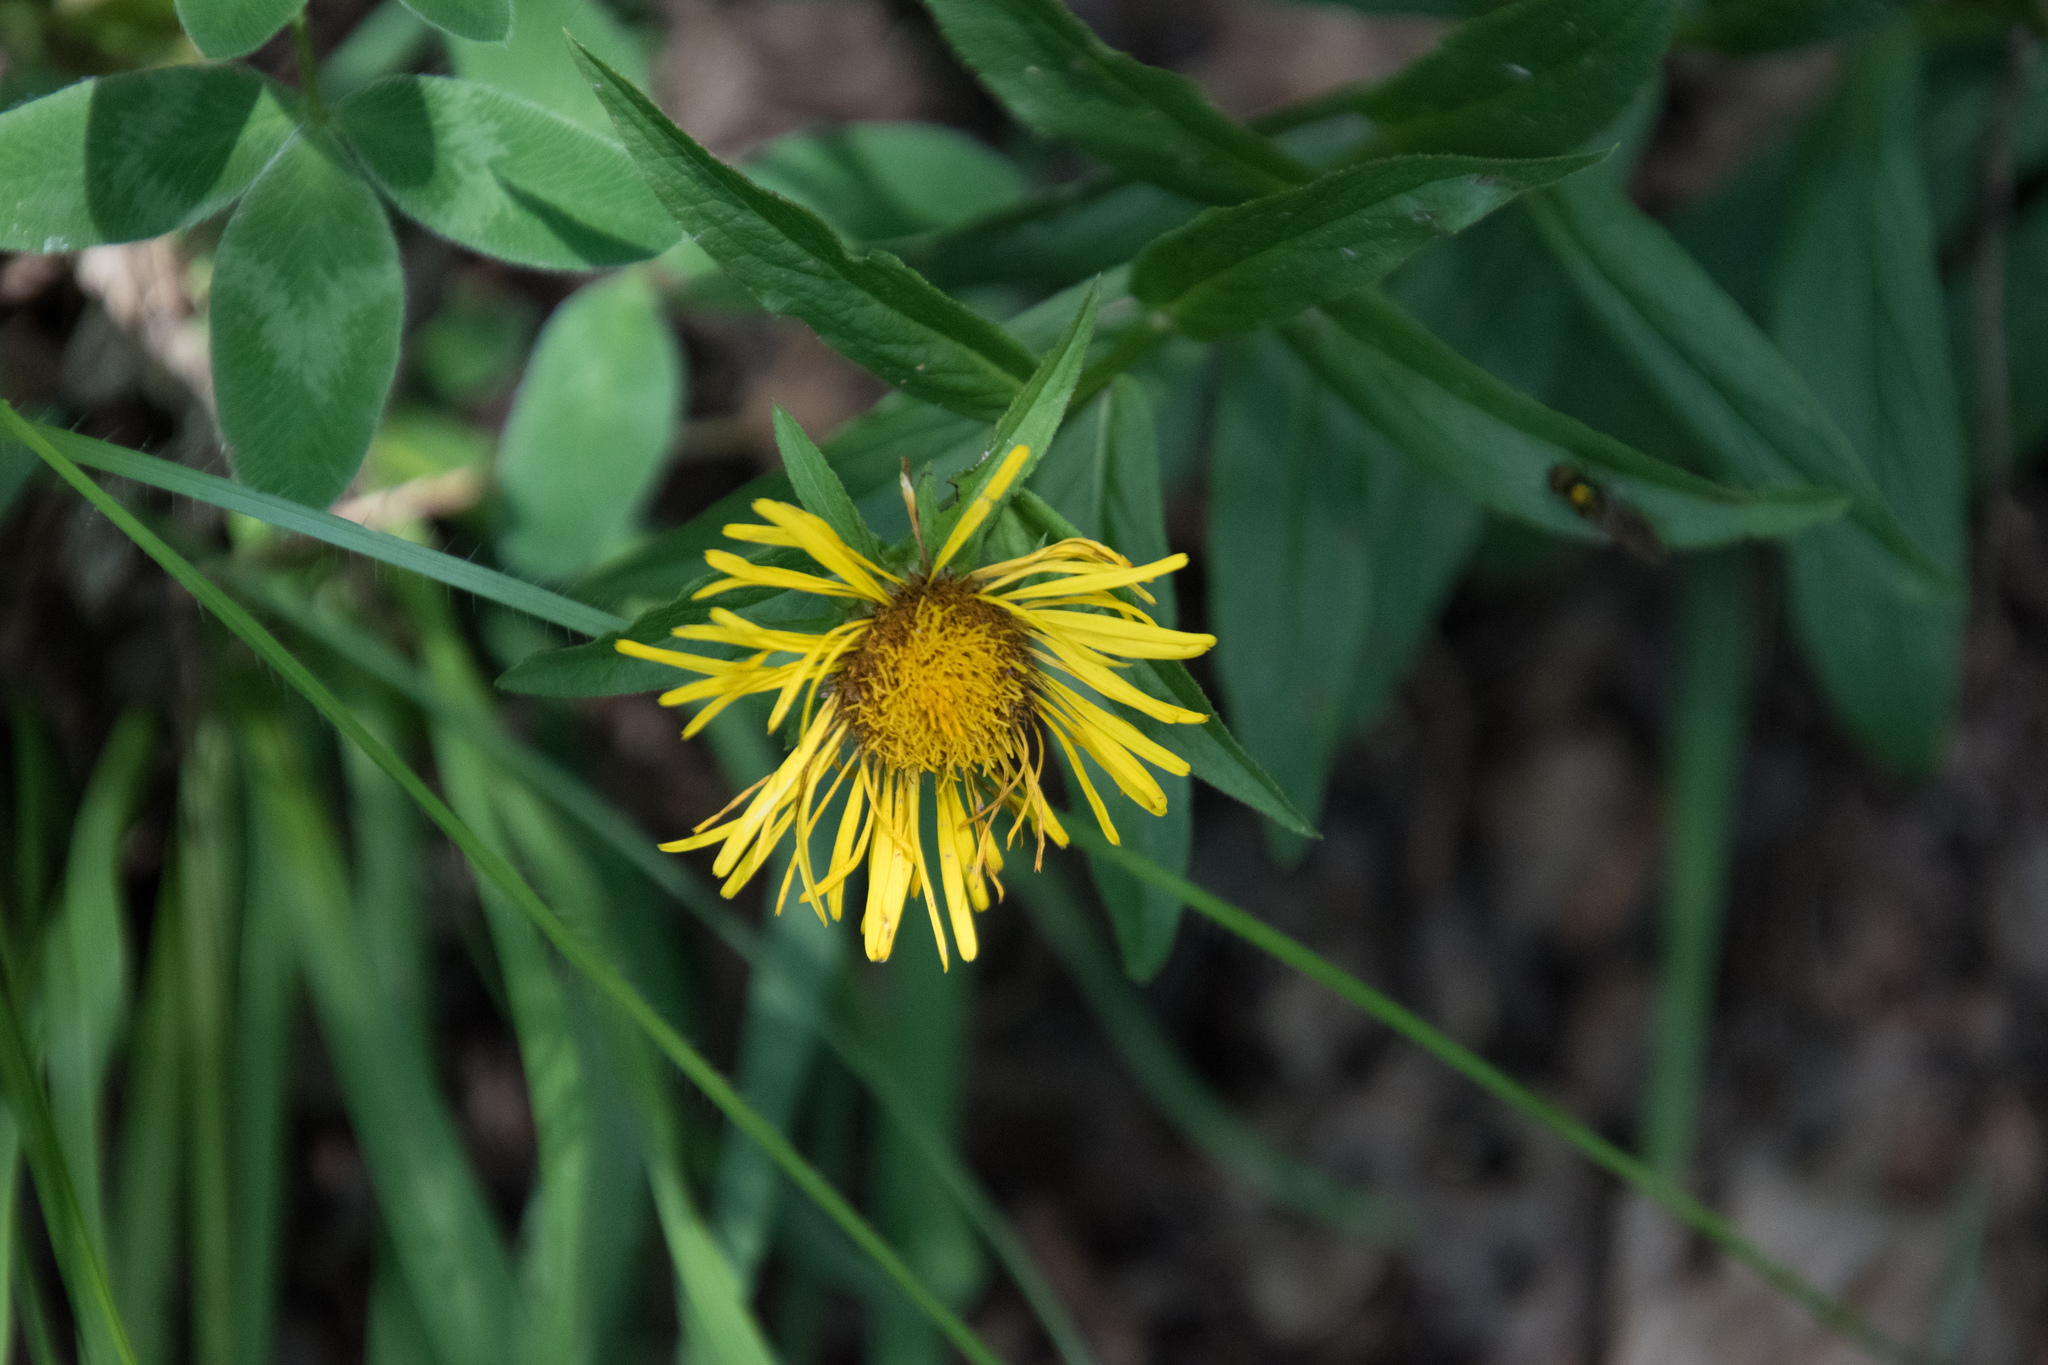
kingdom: Plantae
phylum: Tracheophyta
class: Magnoliopsida
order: Asterales
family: Asteraceae
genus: Pentanema
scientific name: Pentanema salicinum
